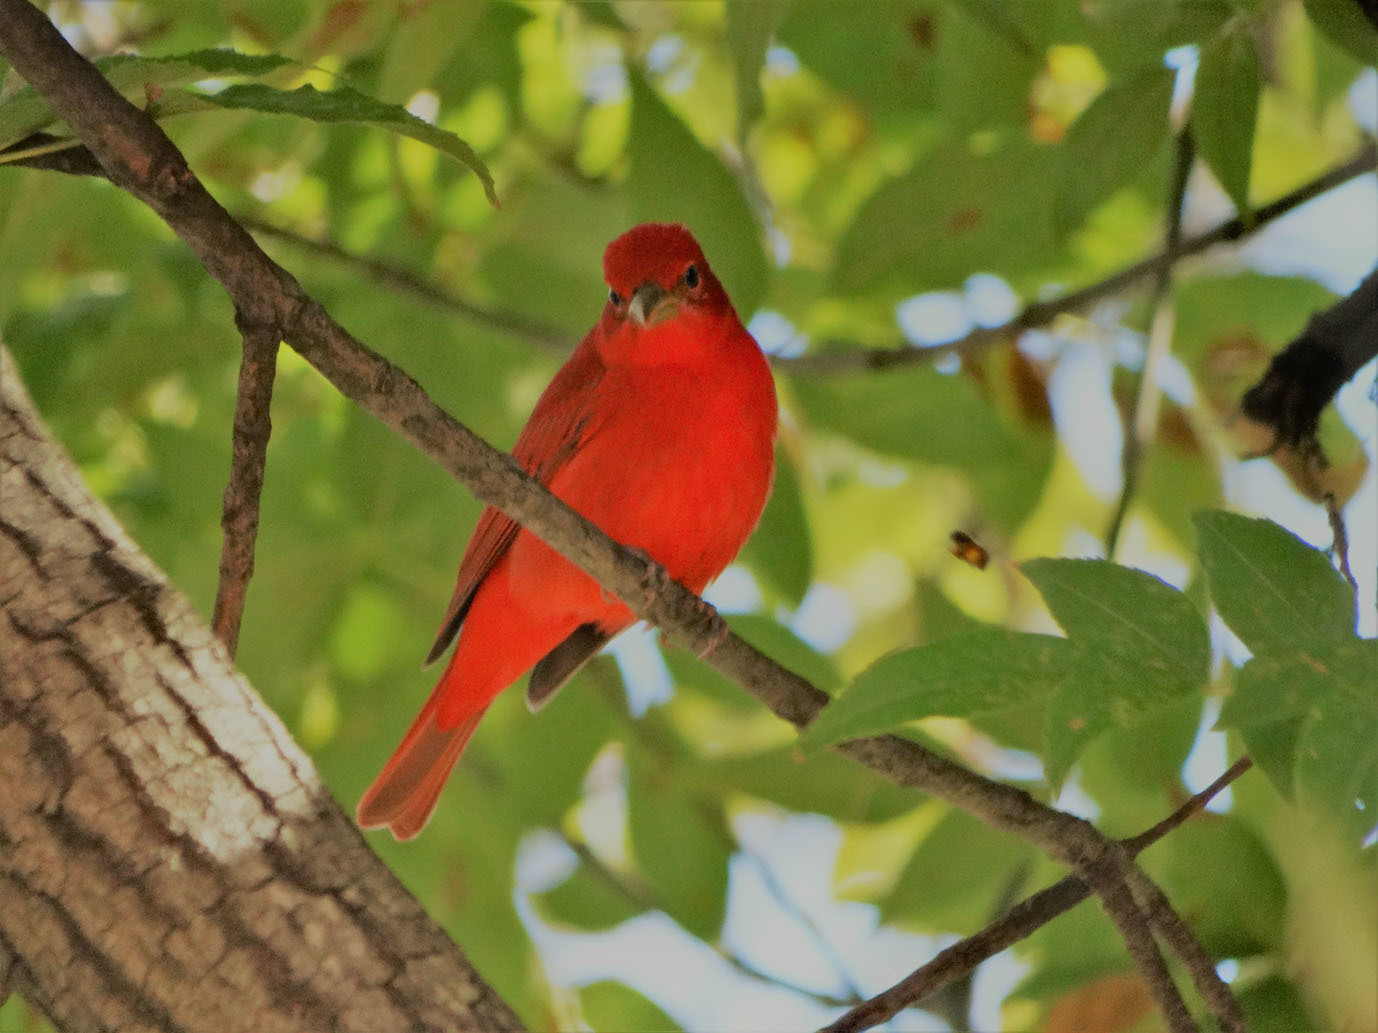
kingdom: Animalia
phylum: Chordata
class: Aves
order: Passeriformes
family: Cardinalidae
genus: Piranga
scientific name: Piranga rubra
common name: Summer tanager
